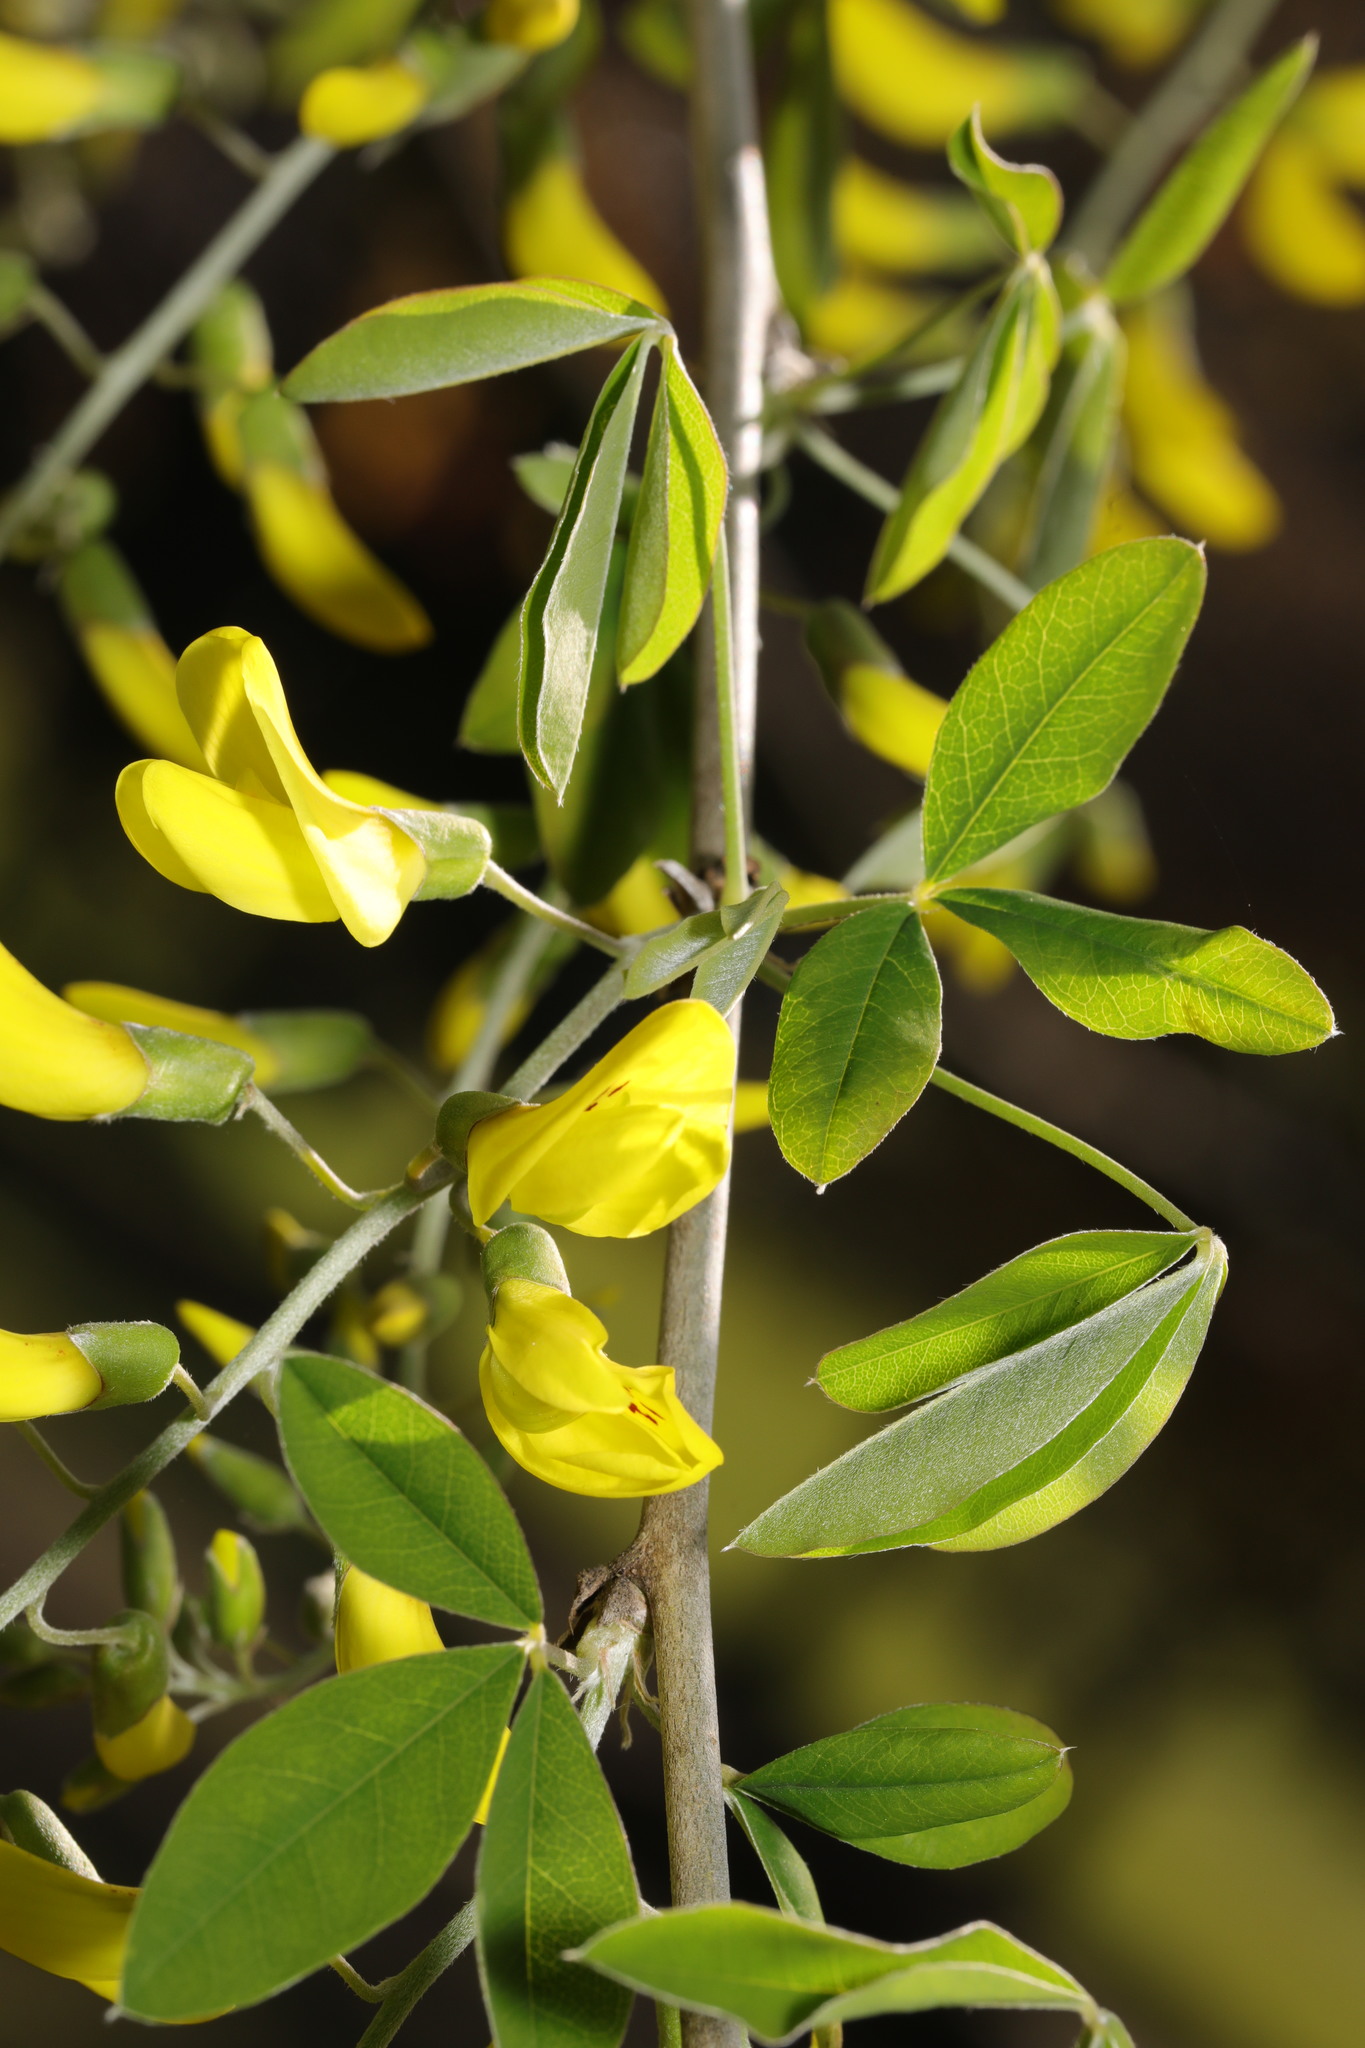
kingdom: Plantae
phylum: Tracheophyta
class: Magnoliopsida
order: Fabales
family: Fabaceae
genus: Laburnum
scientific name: Laburnum anagyroides
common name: Laburnum
